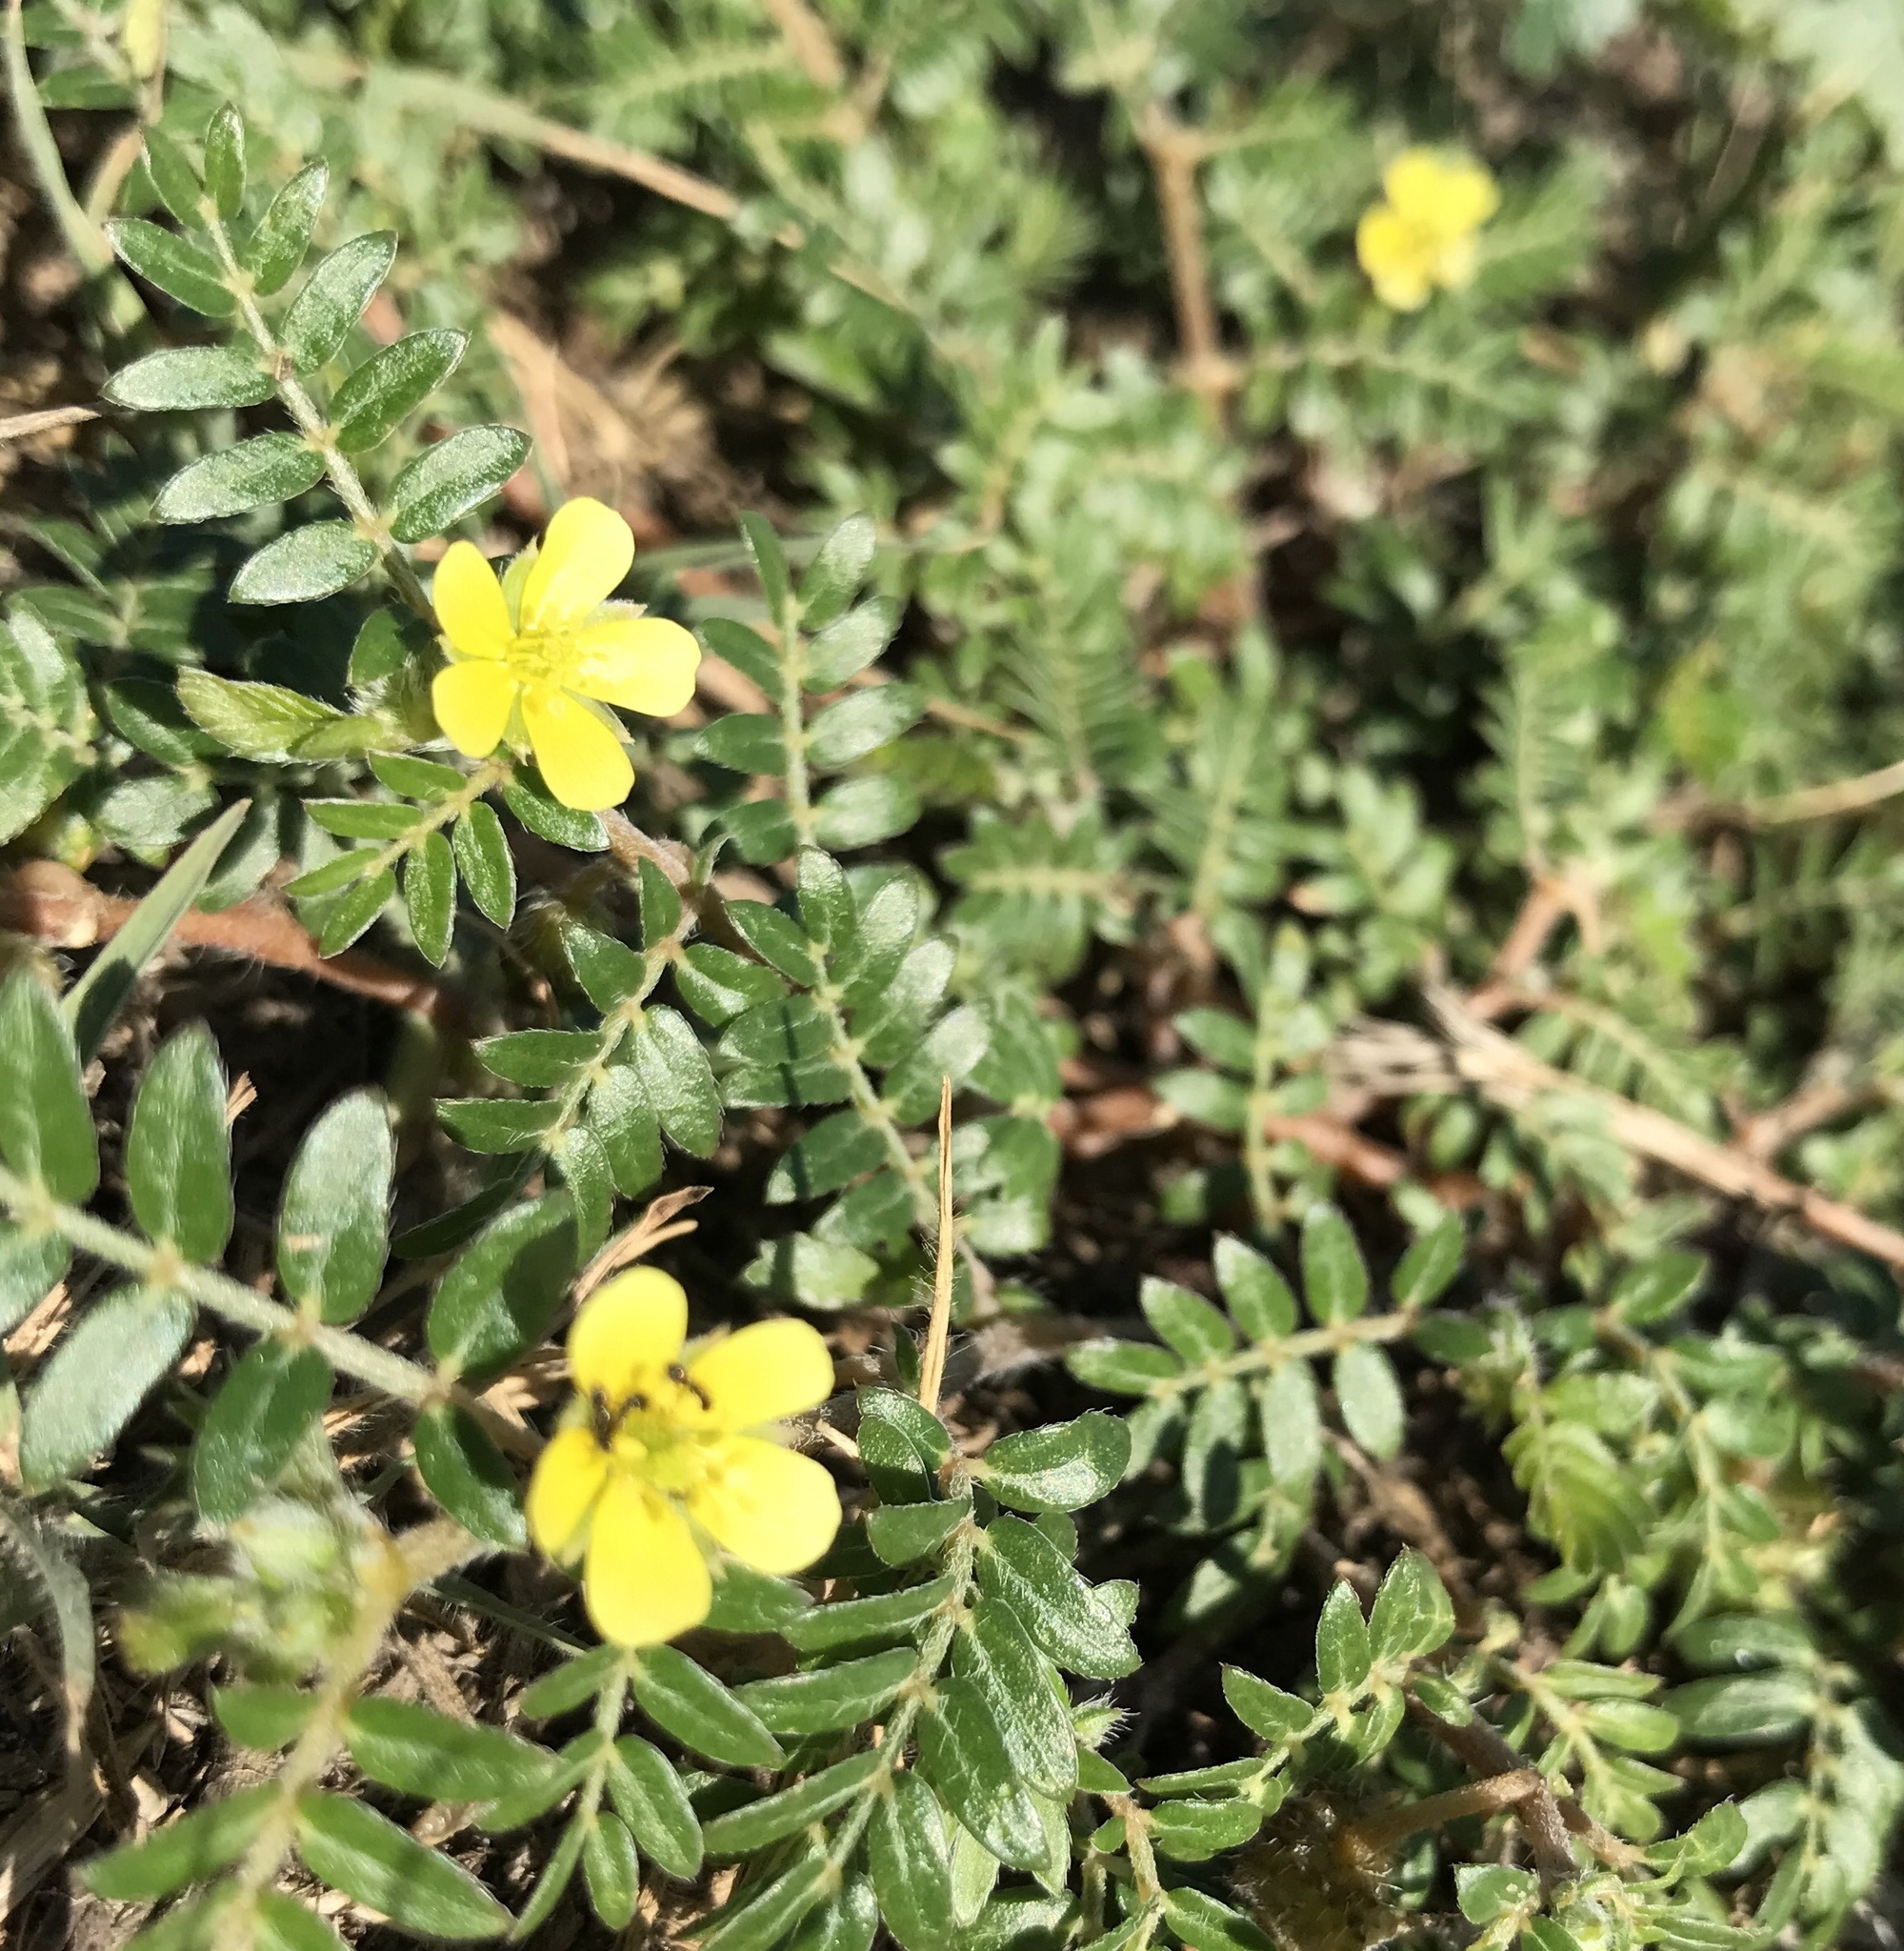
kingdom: Plantae
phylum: Tracheophyta
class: Magnoliopsida
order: Zygophyllales
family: Zygophyllaceae
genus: Tribulus
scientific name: Tribulus terrestris
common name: Puncturevine
